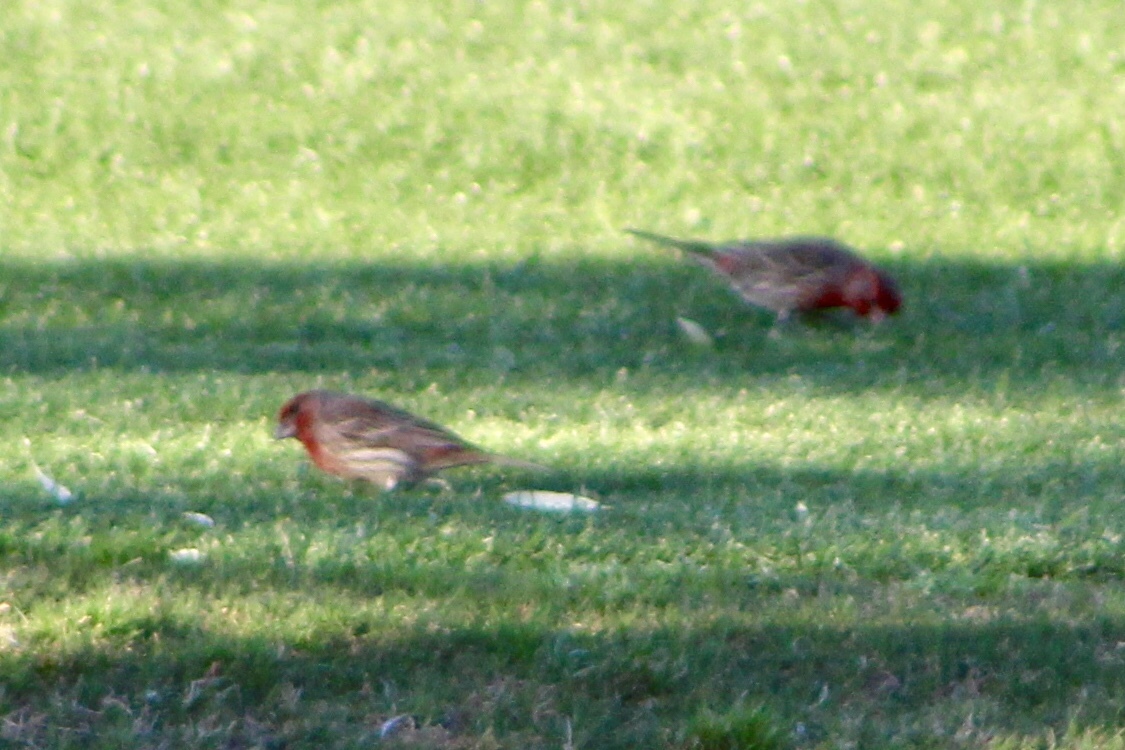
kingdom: Animalia
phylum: Chordata
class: Aves
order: Passeriformes
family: Fringillidae
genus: Haemorhous
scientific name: Haemorhous mexicanus
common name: House finch
